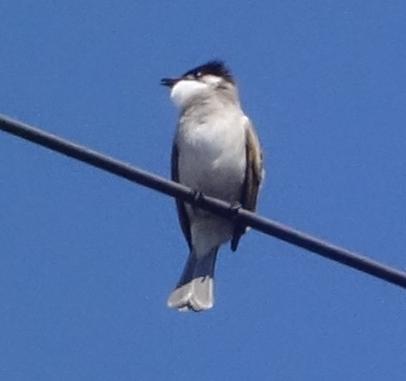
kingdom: Animalia
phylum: Chordata
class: Aves
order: Passeriformes
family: Pycnonotidae
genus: Pycnonotus
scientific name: Pycnonotus taivanus
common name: Styan's bulbul
